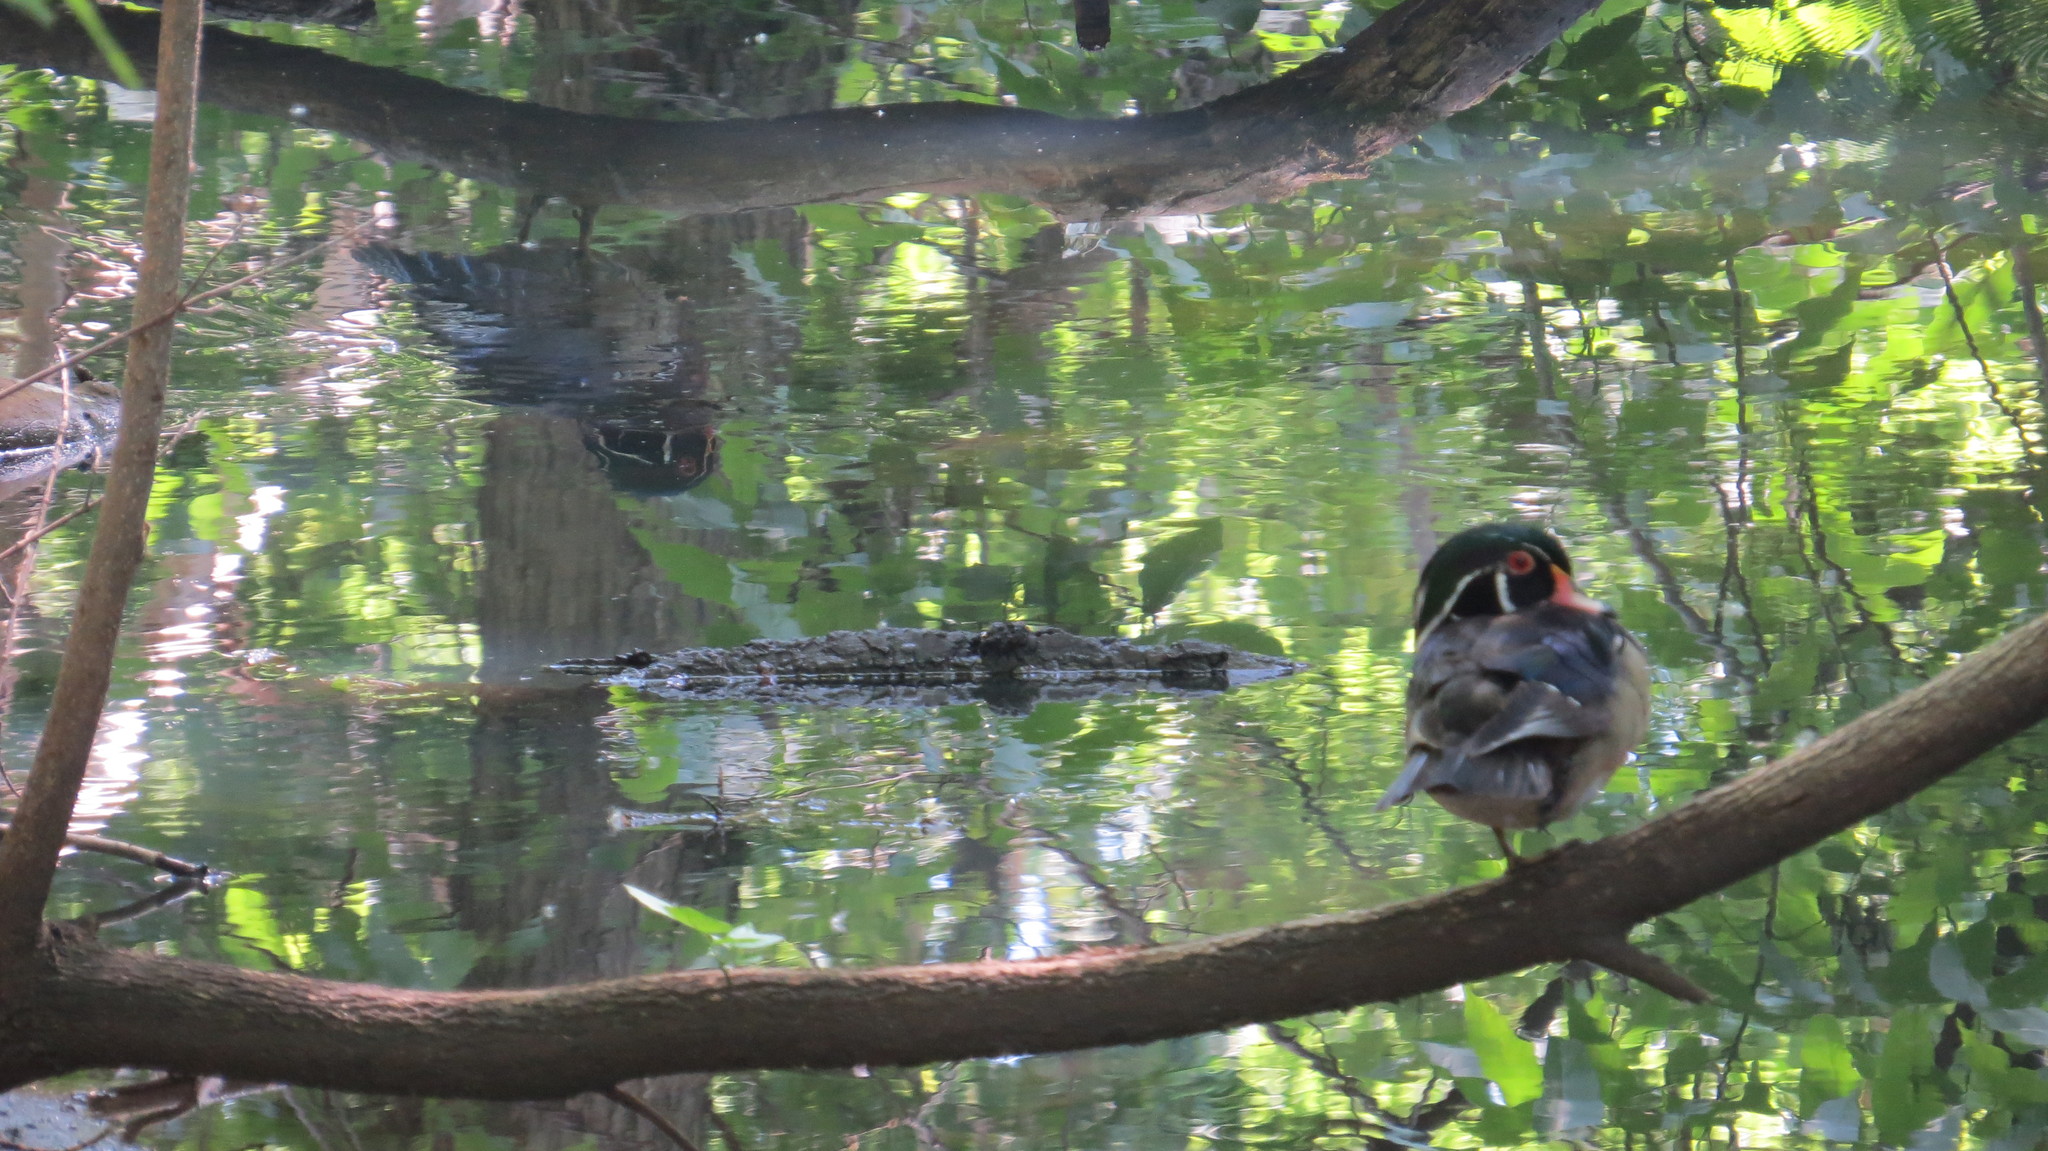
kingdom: Animalia
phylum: Chordata
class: Aves
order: Anseriformes
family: Anatidae
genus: Aix
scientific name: Aix sponsa
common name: Wood duck
